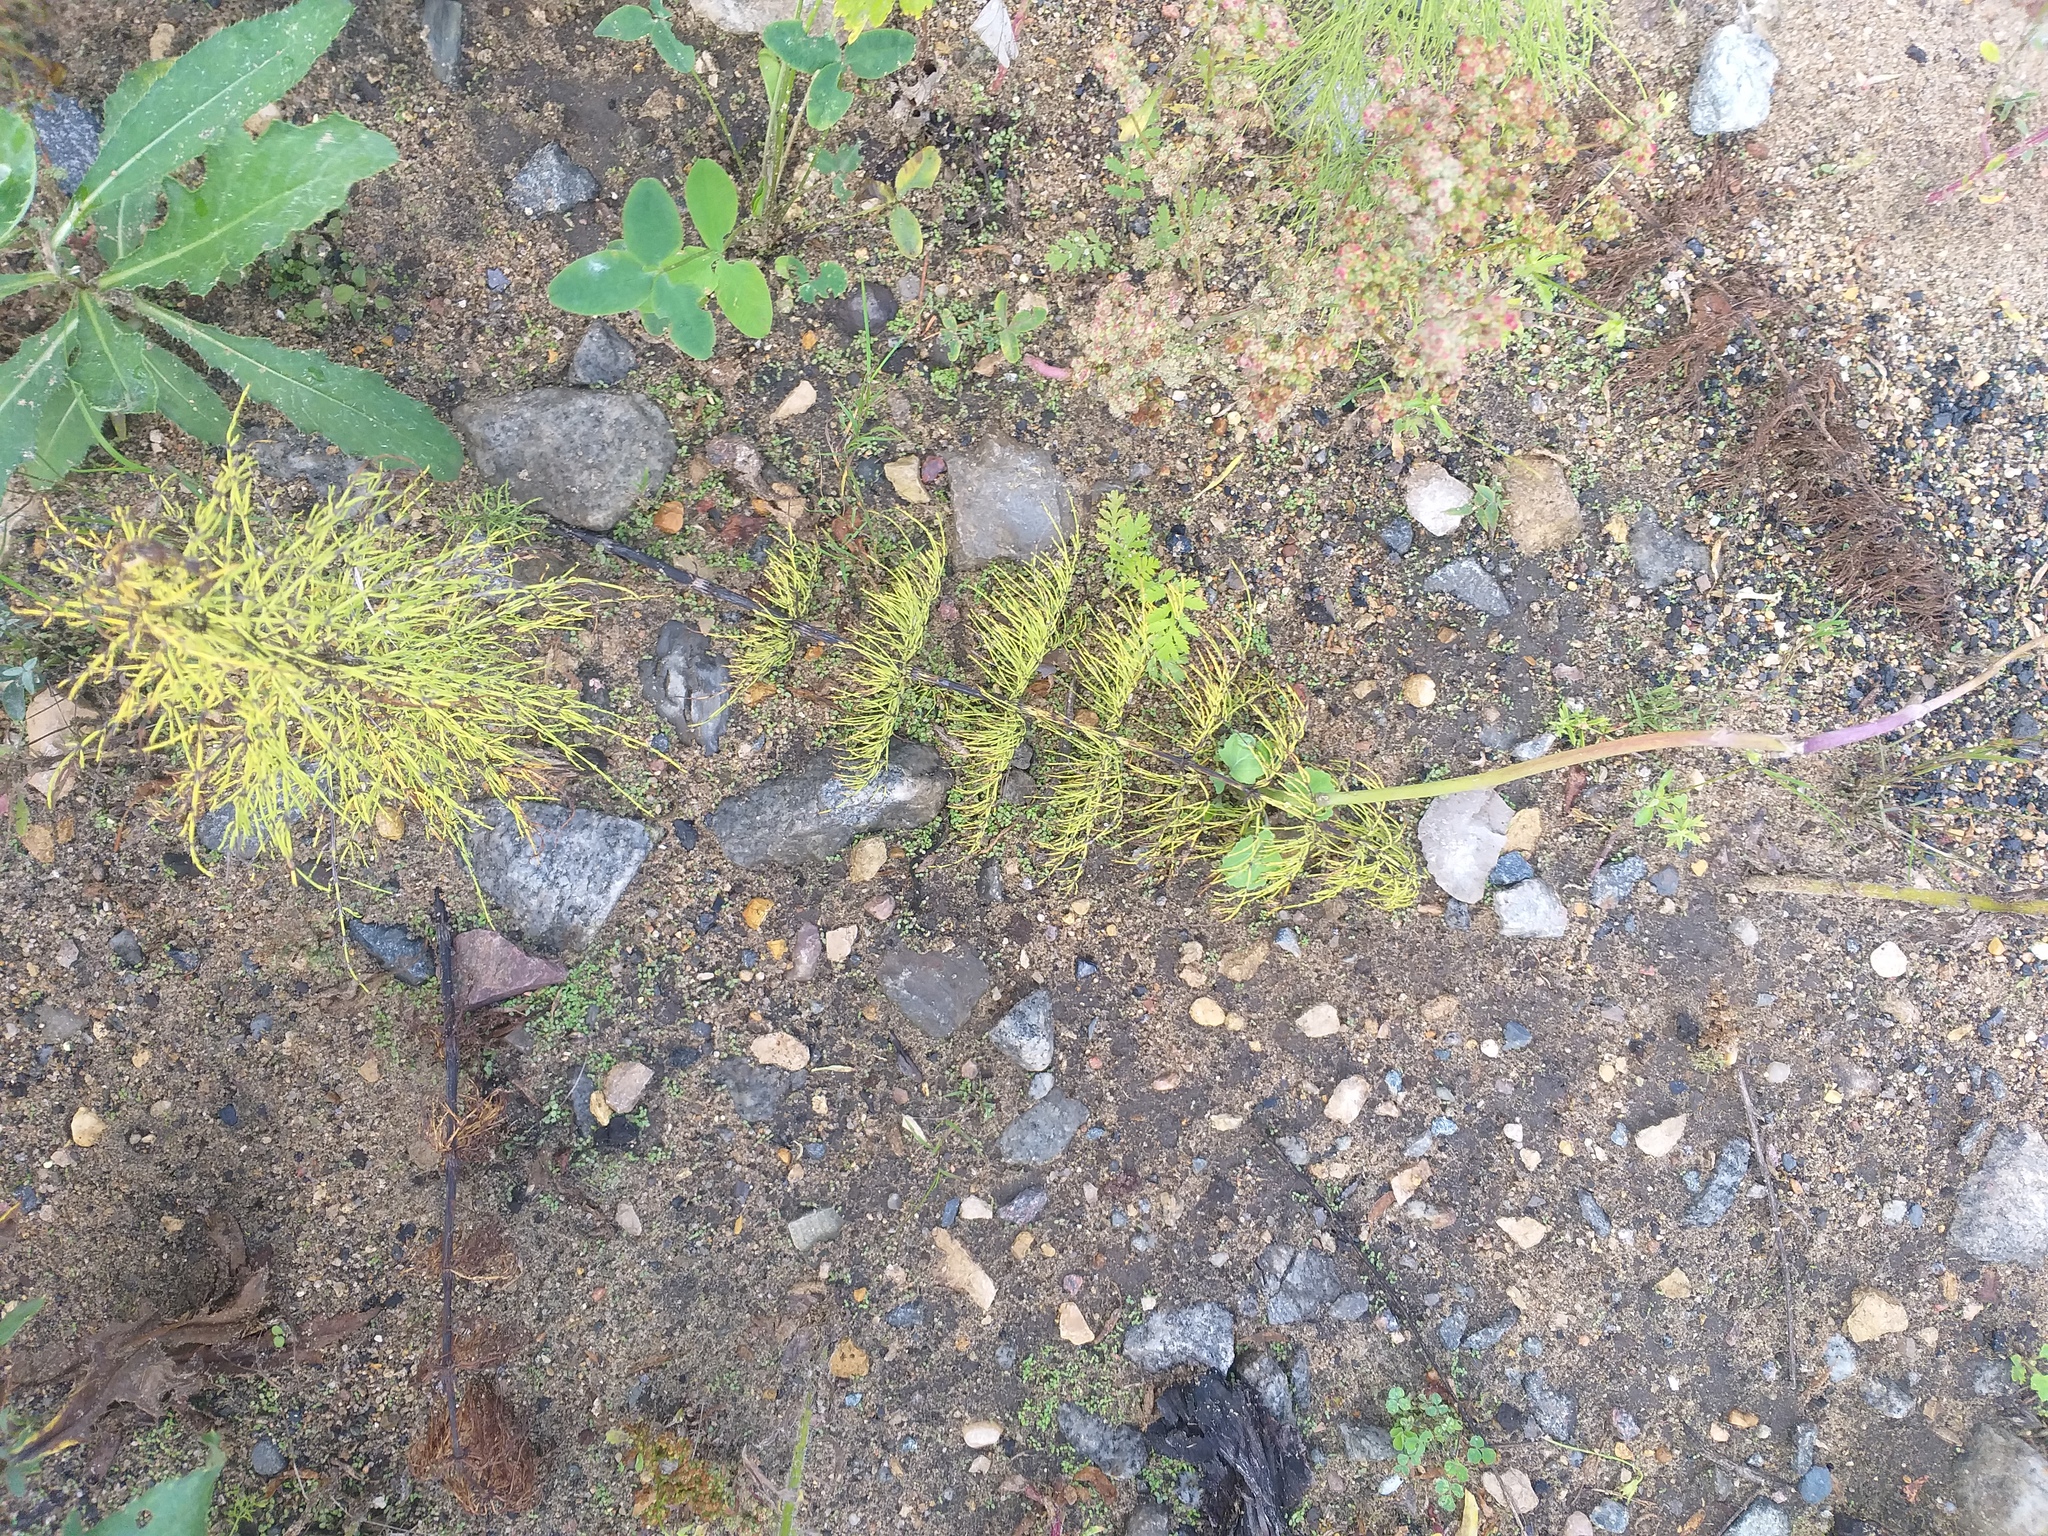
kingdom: Plantae
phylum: Tracheophyta
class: Polypodiopsida
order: Equisetales
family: Equisetaceae
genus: Equisetum
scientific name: Equisetum sylvaticum
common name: Wood horsetail
